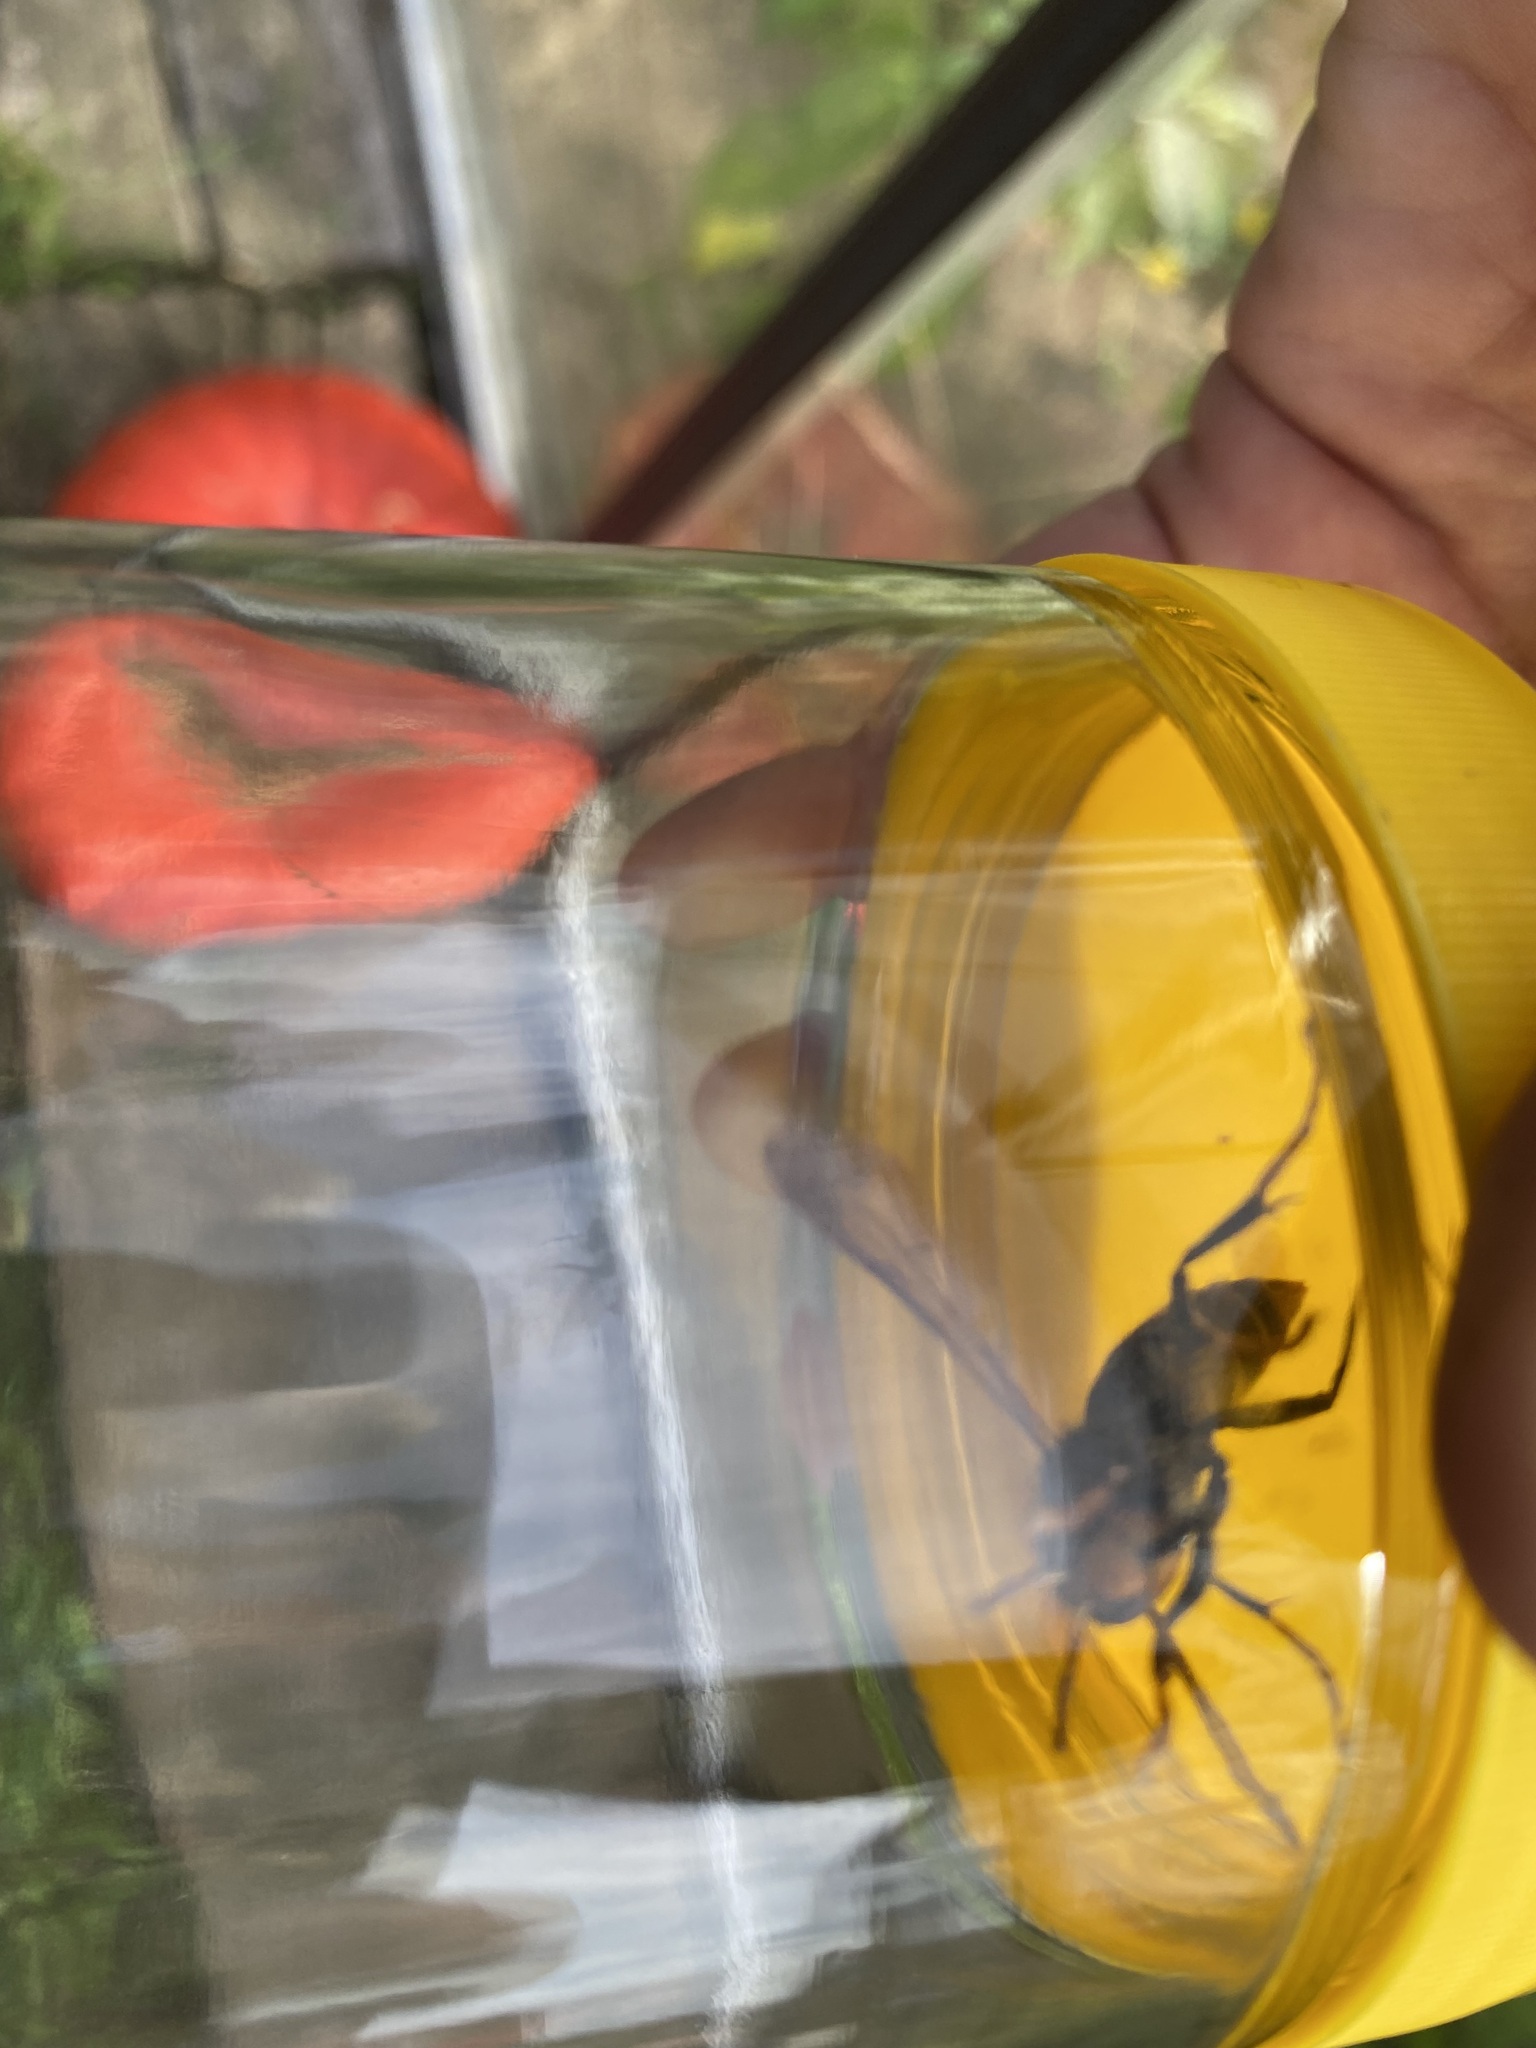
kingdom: Animalia
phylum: Arthropoda
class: Insecta
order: Hymenoptera
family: Vespidae
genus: Vespa
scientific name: Vespa velutina
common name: Asian hornet
